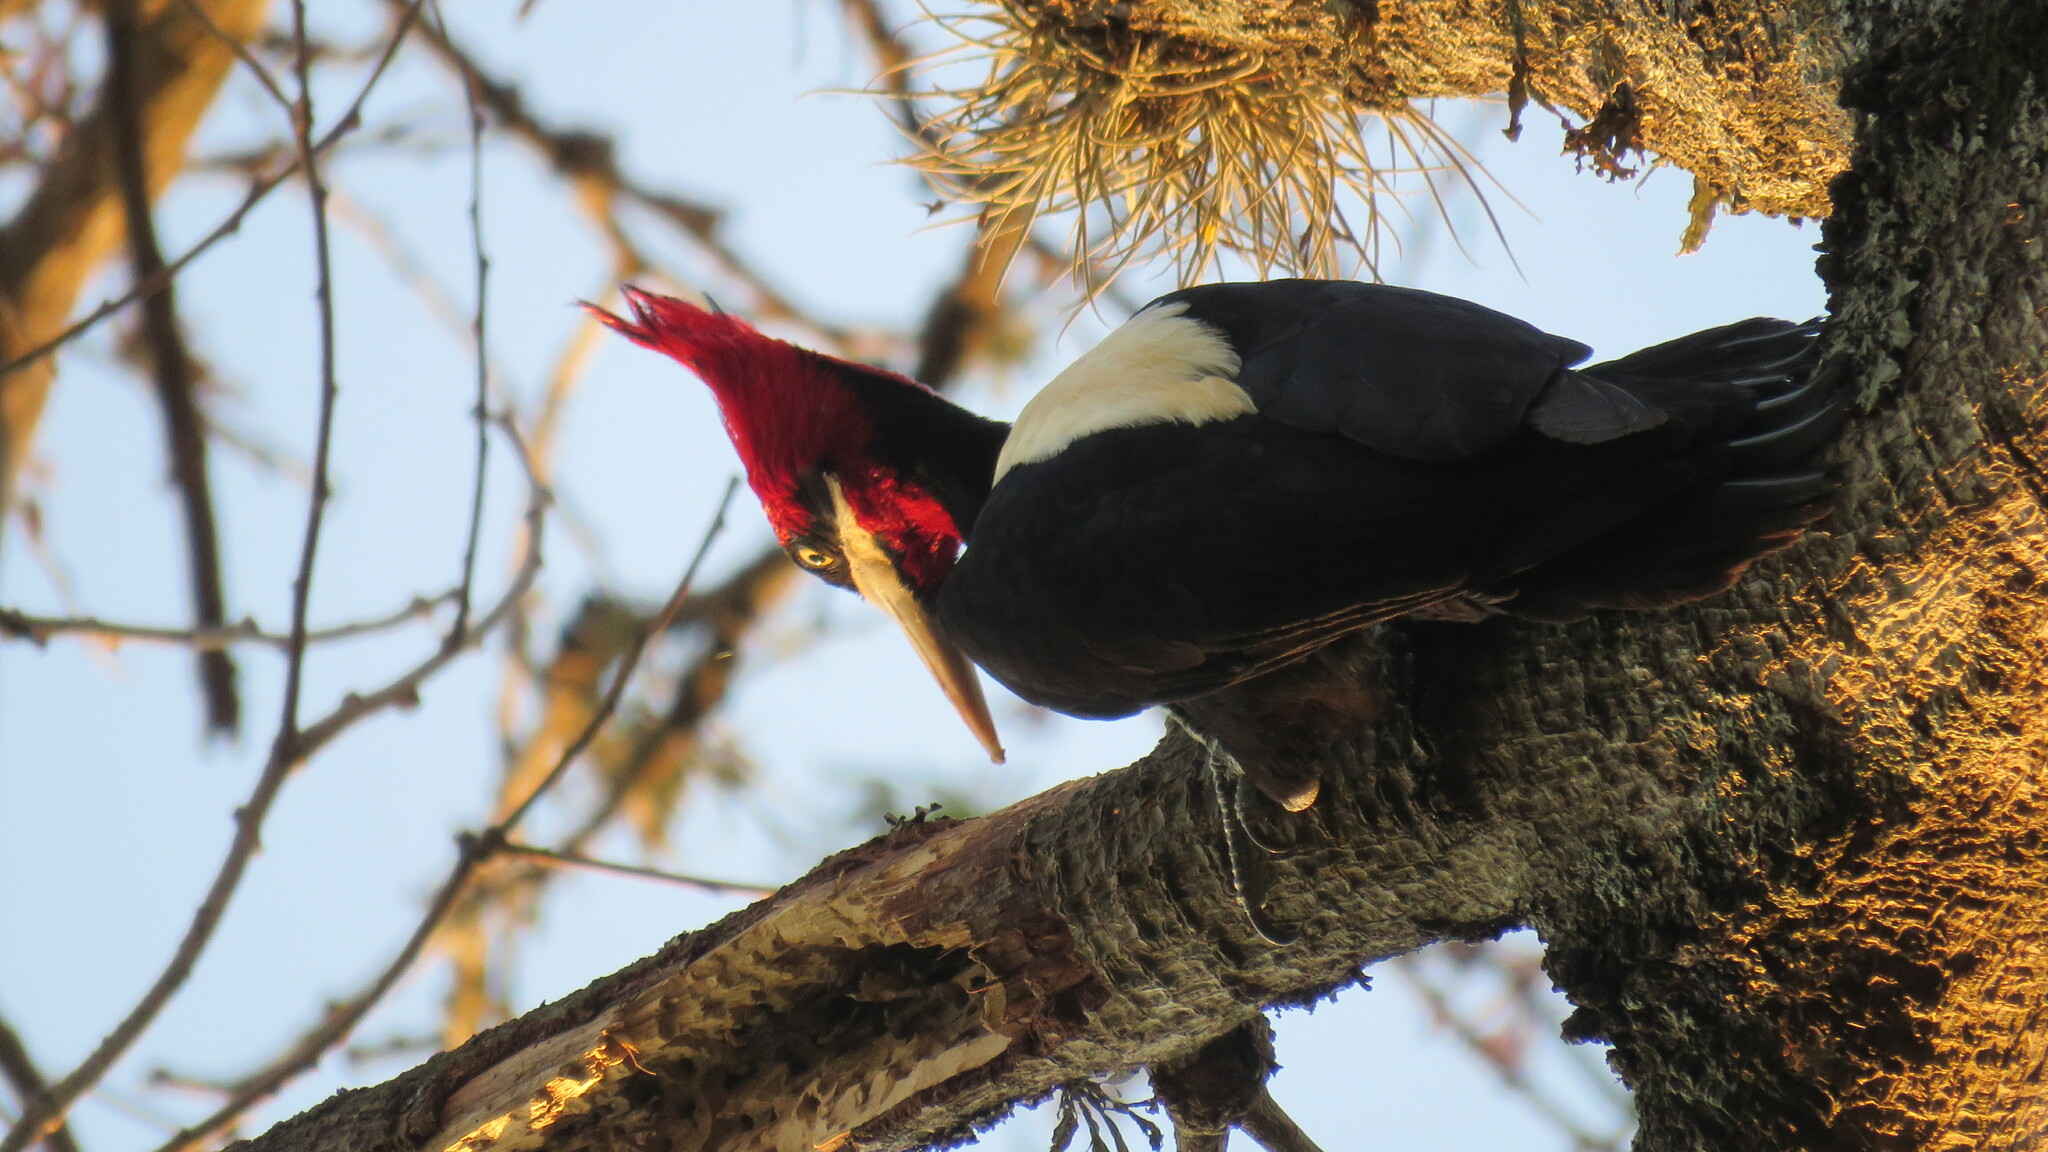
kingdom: Animalia
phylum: Chordata
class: Aves
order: Piciformes
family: Picidae
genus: Campephilus
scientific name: Campephilus leucopogon
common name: Cream-backed woodpecker
